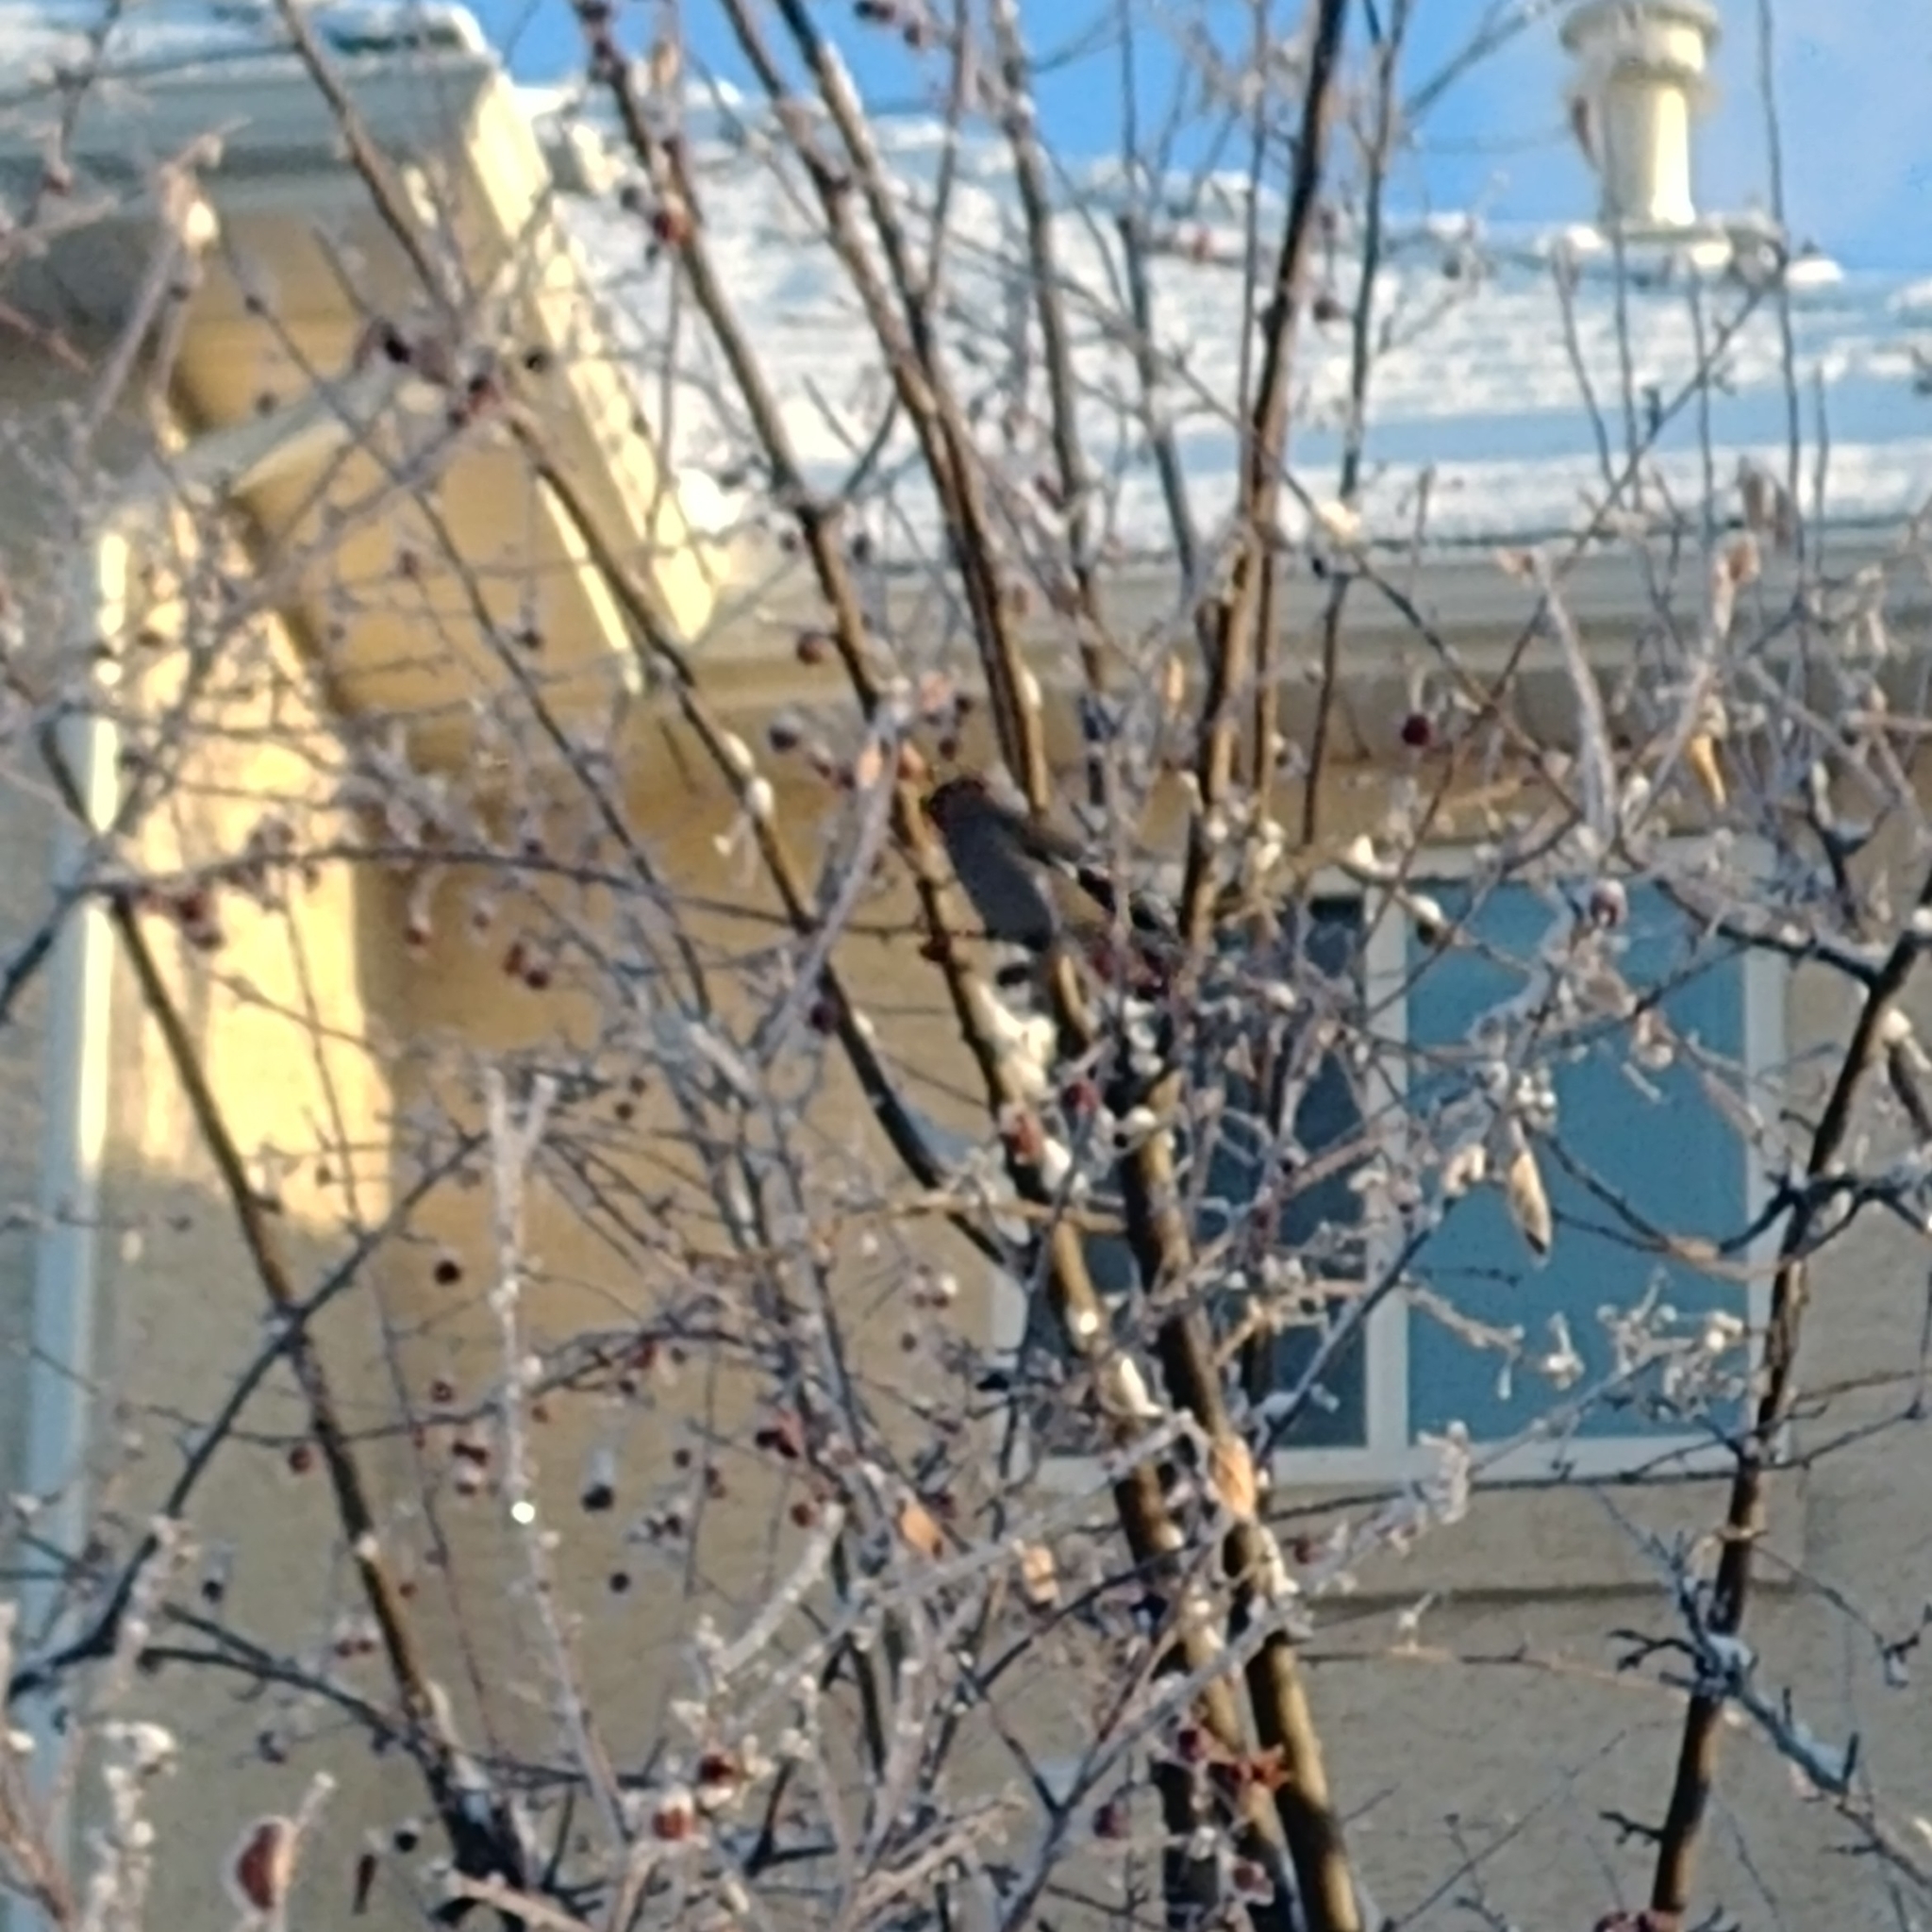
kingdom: Animalia
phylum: Chordata
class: Aves
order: Passeriformes
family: Bombycillidae
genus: Bombycilla
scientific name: Bombycilla garrulus
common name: Bohemian waxwing
